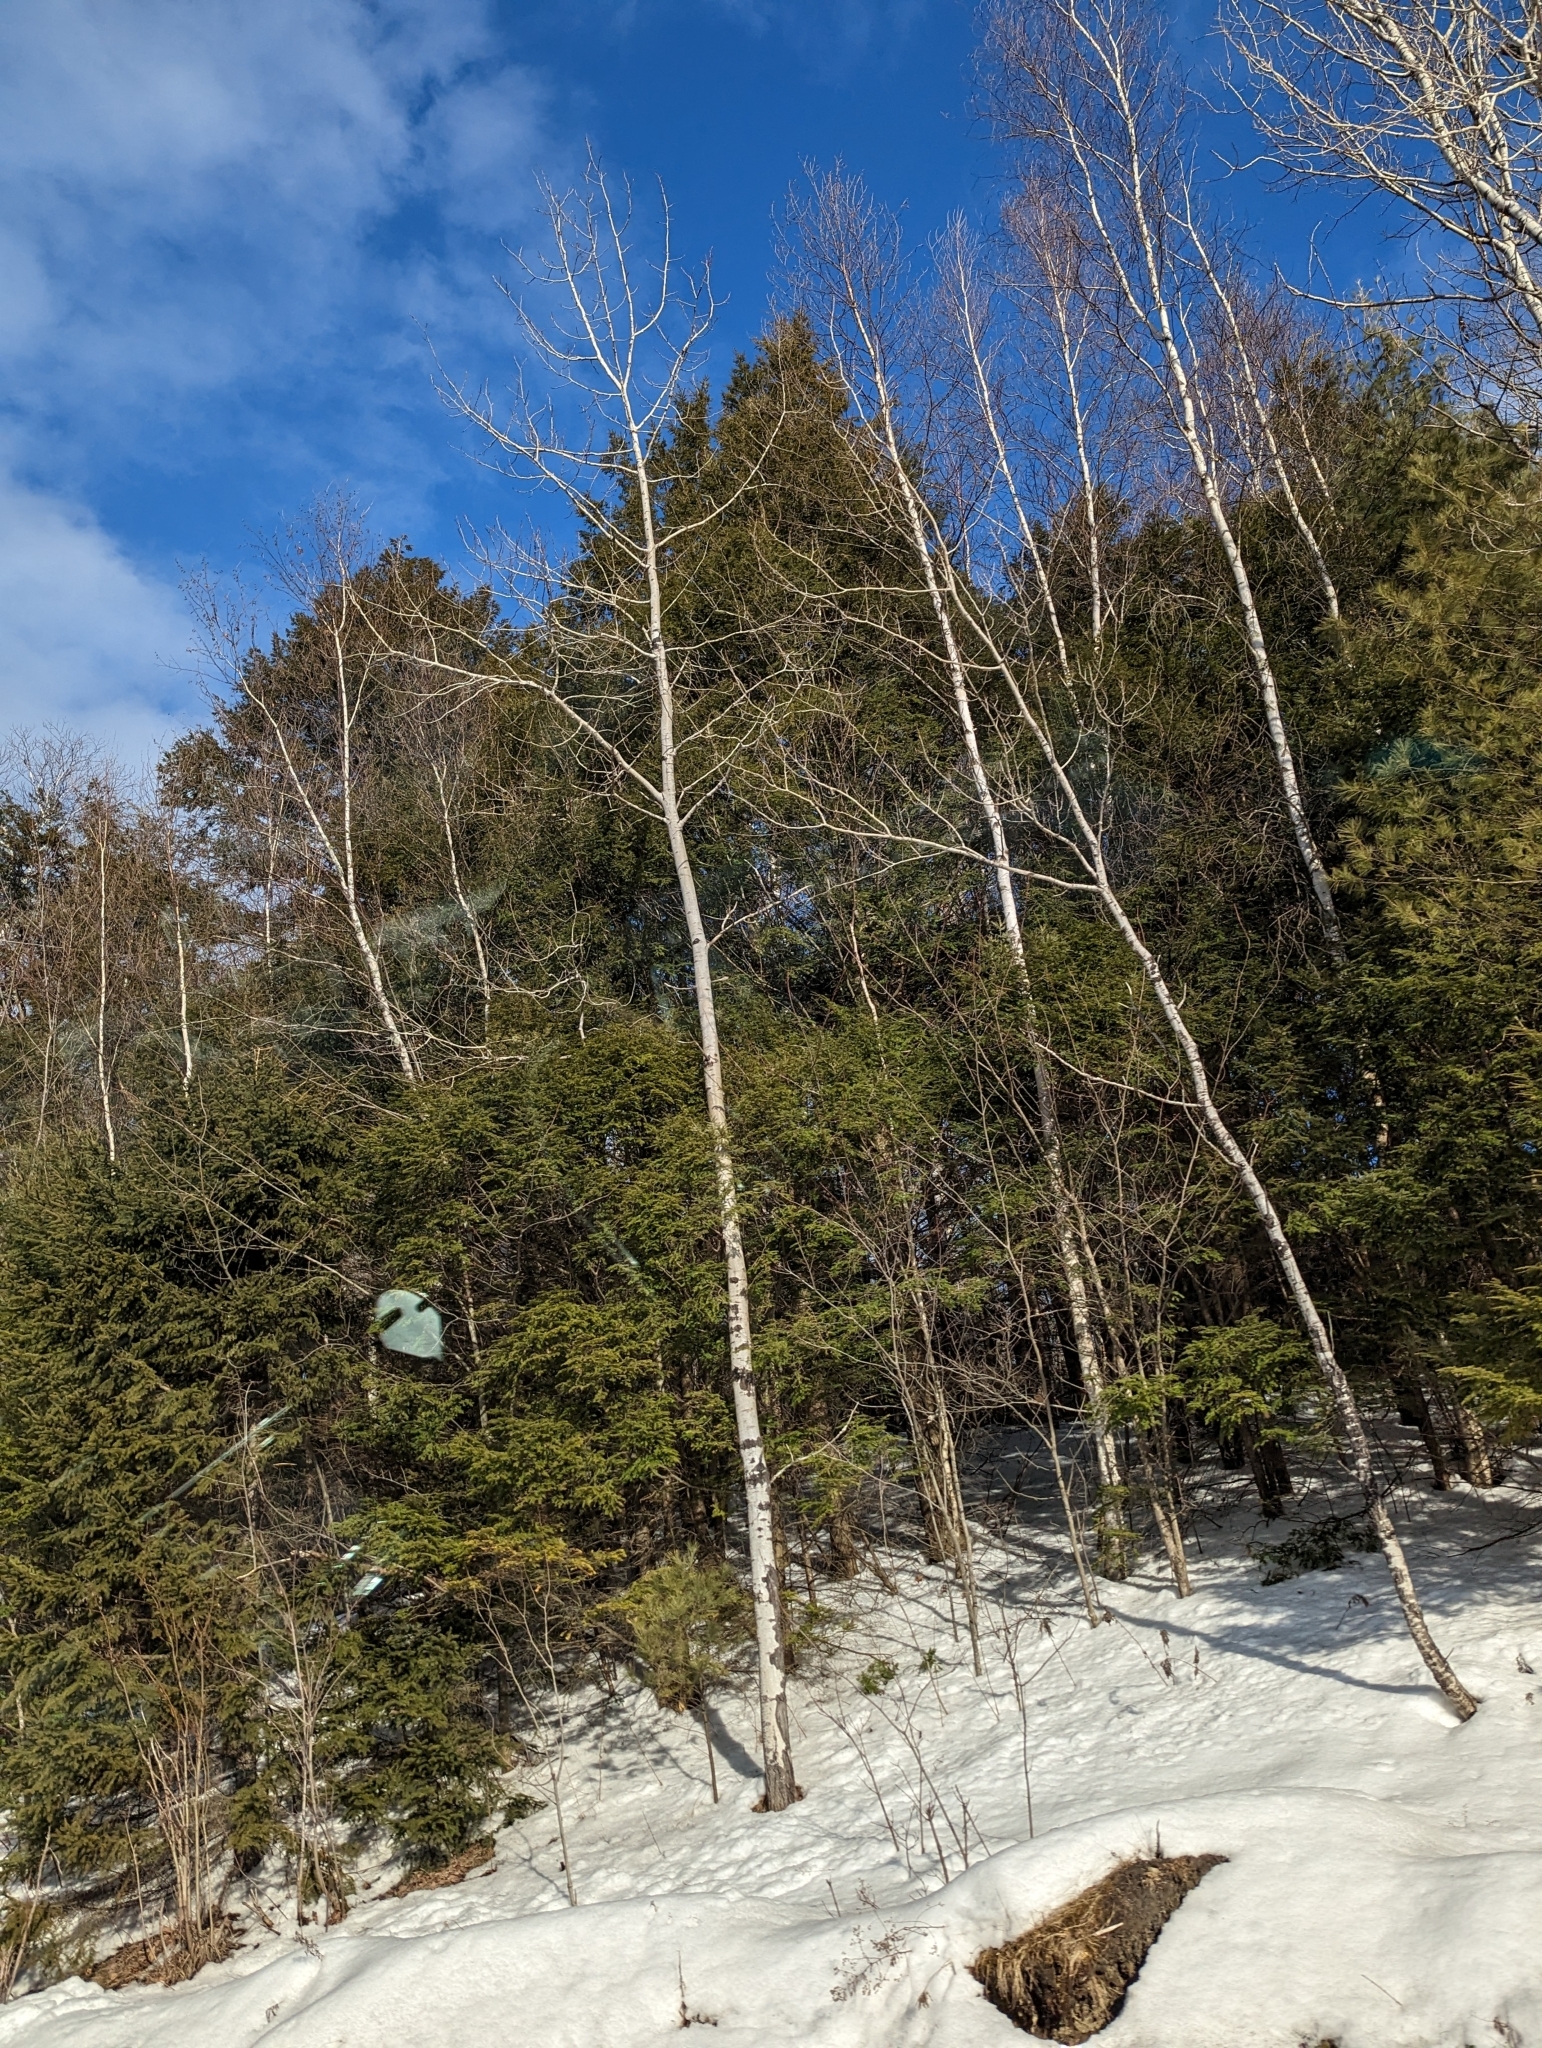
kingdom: Plantae
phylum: Tracheophyta
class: Pinopsida
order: Pinales
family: Pinaceae
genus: Tsuga
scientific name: Tsuga canadensis
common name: Eastern hemlock
